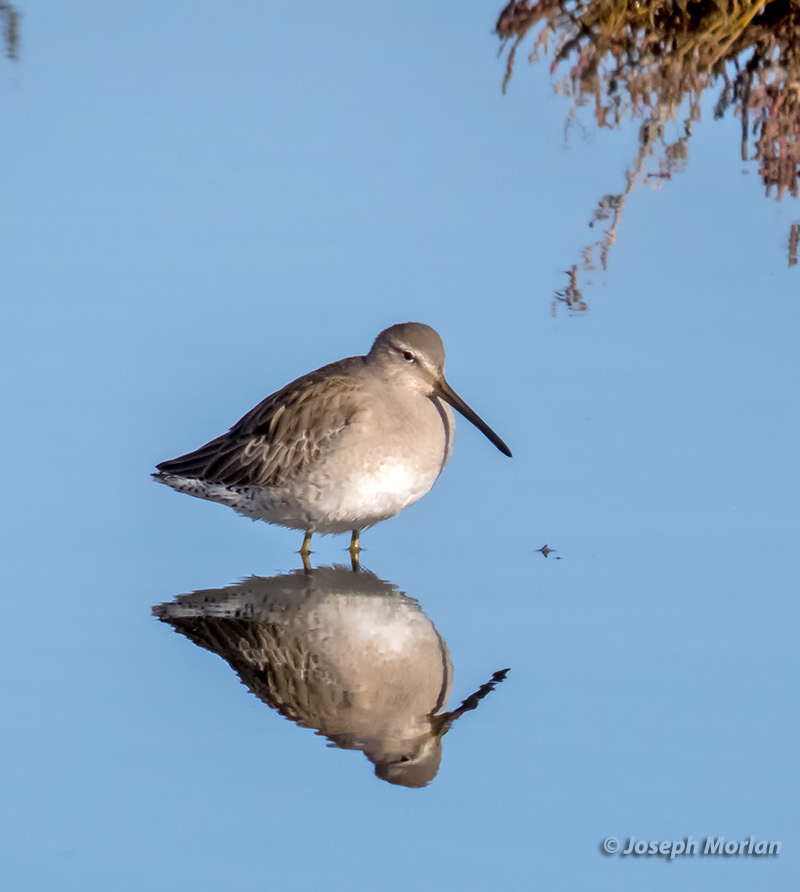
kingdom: Animalia
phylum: Chordata
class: Aves
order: Charadriiformes
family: Scolopacidae
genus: Limnodromus
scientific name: Limnodromus scolopaceus
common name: Long-billed dowitcher
